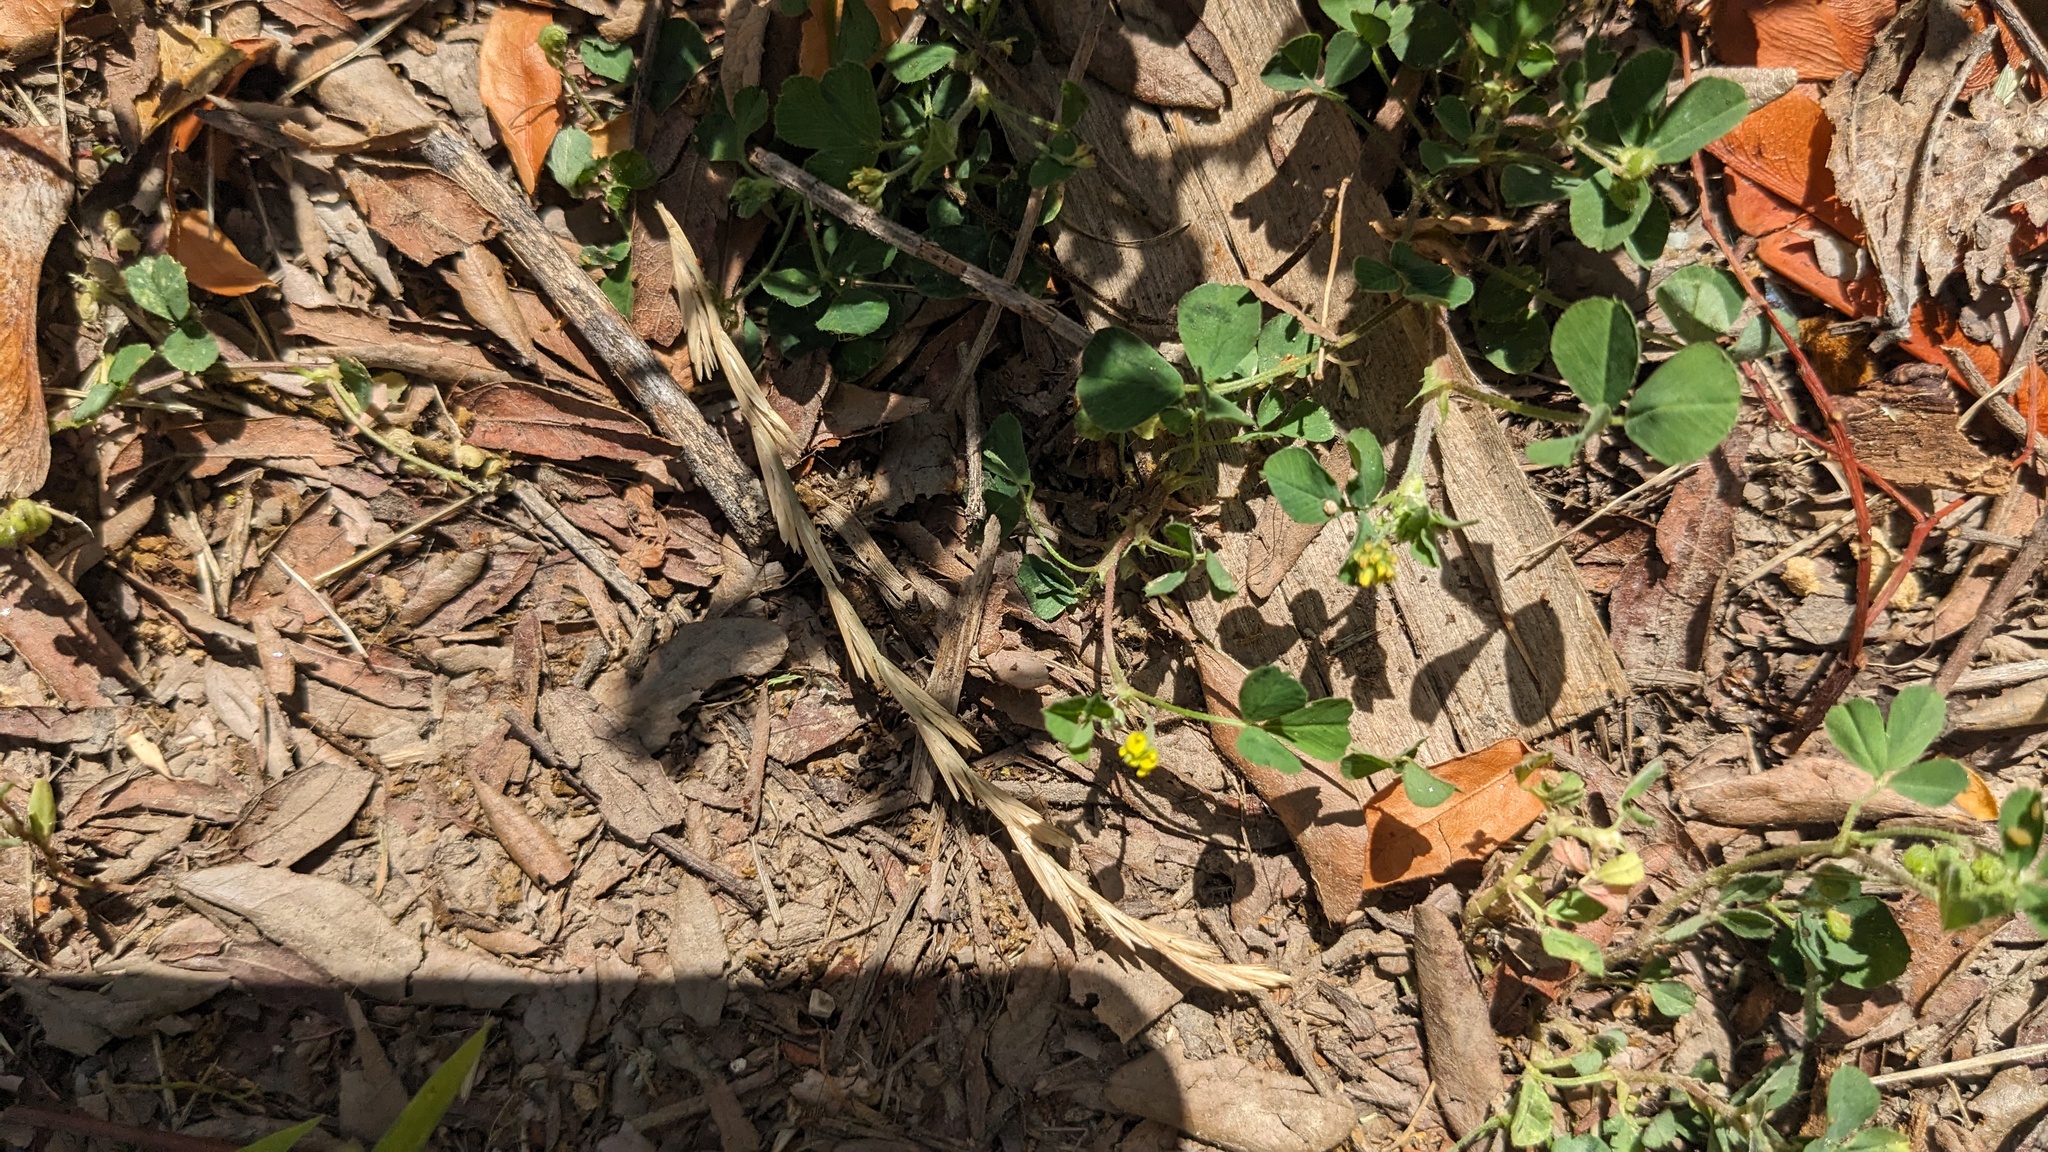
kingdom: Plantae
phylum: Tracheophyta
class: Magnoliopsida
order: Fabales
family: Fabaceae
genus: Medicago
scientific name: Medicago lupulina
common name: Black medick
